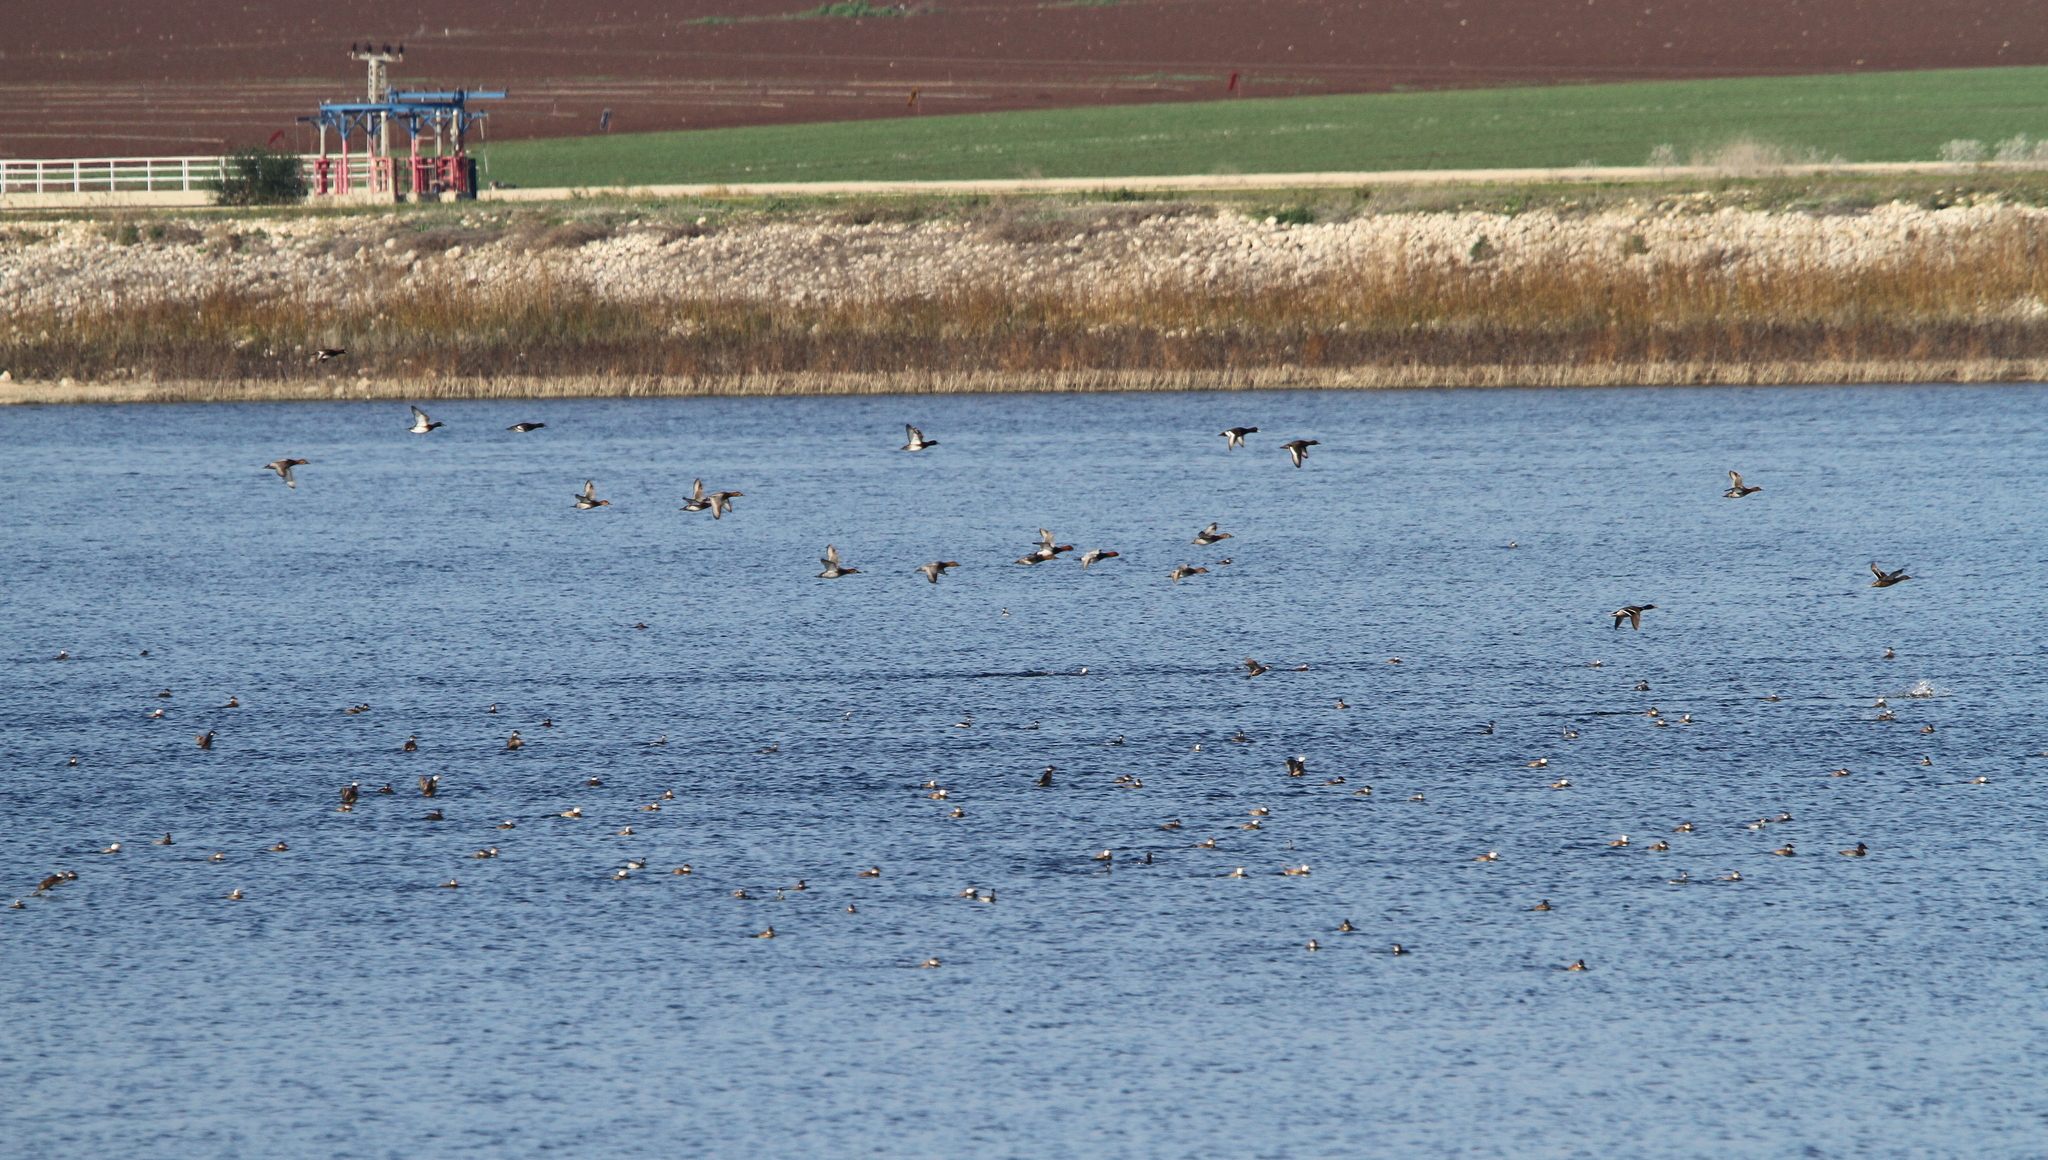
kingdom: Animalia
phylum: Chordata
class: Aves
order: Anseriformes
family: Anatidae
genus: Oxyura
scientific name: Oxyura leucocephala
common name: White-headed duck
